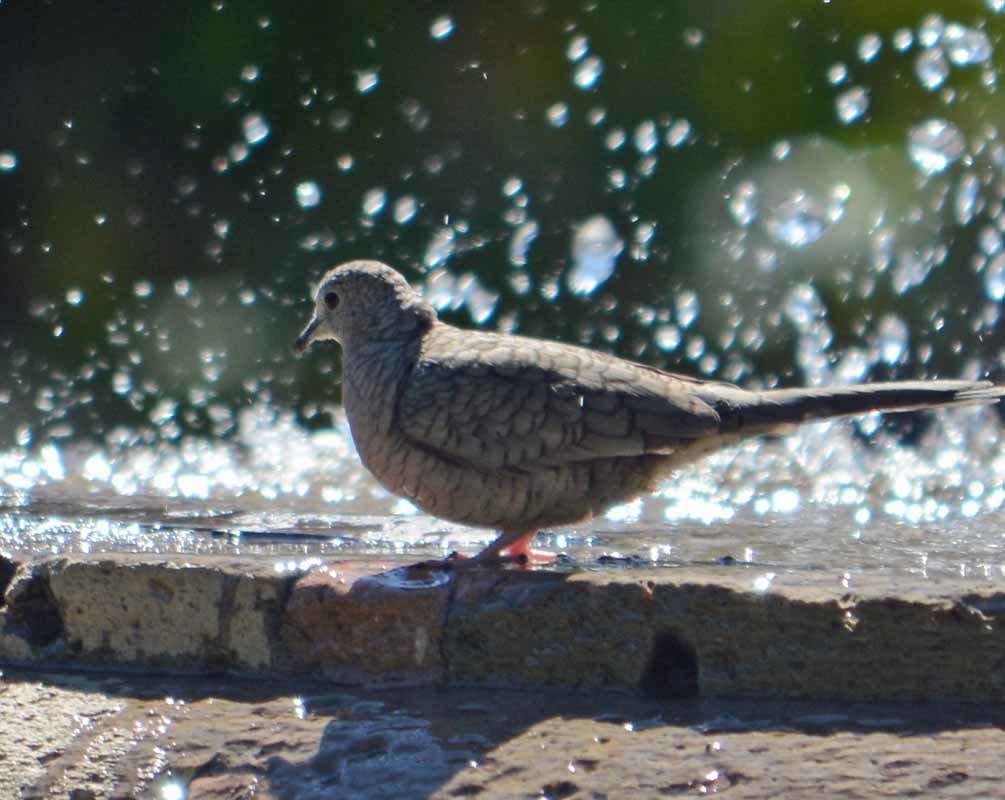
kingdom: Animalia
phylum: Chordata
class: Aves
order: Columbiformes
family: Columbidae
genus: Columbina
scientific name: Columbina inca
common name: Inca dove
